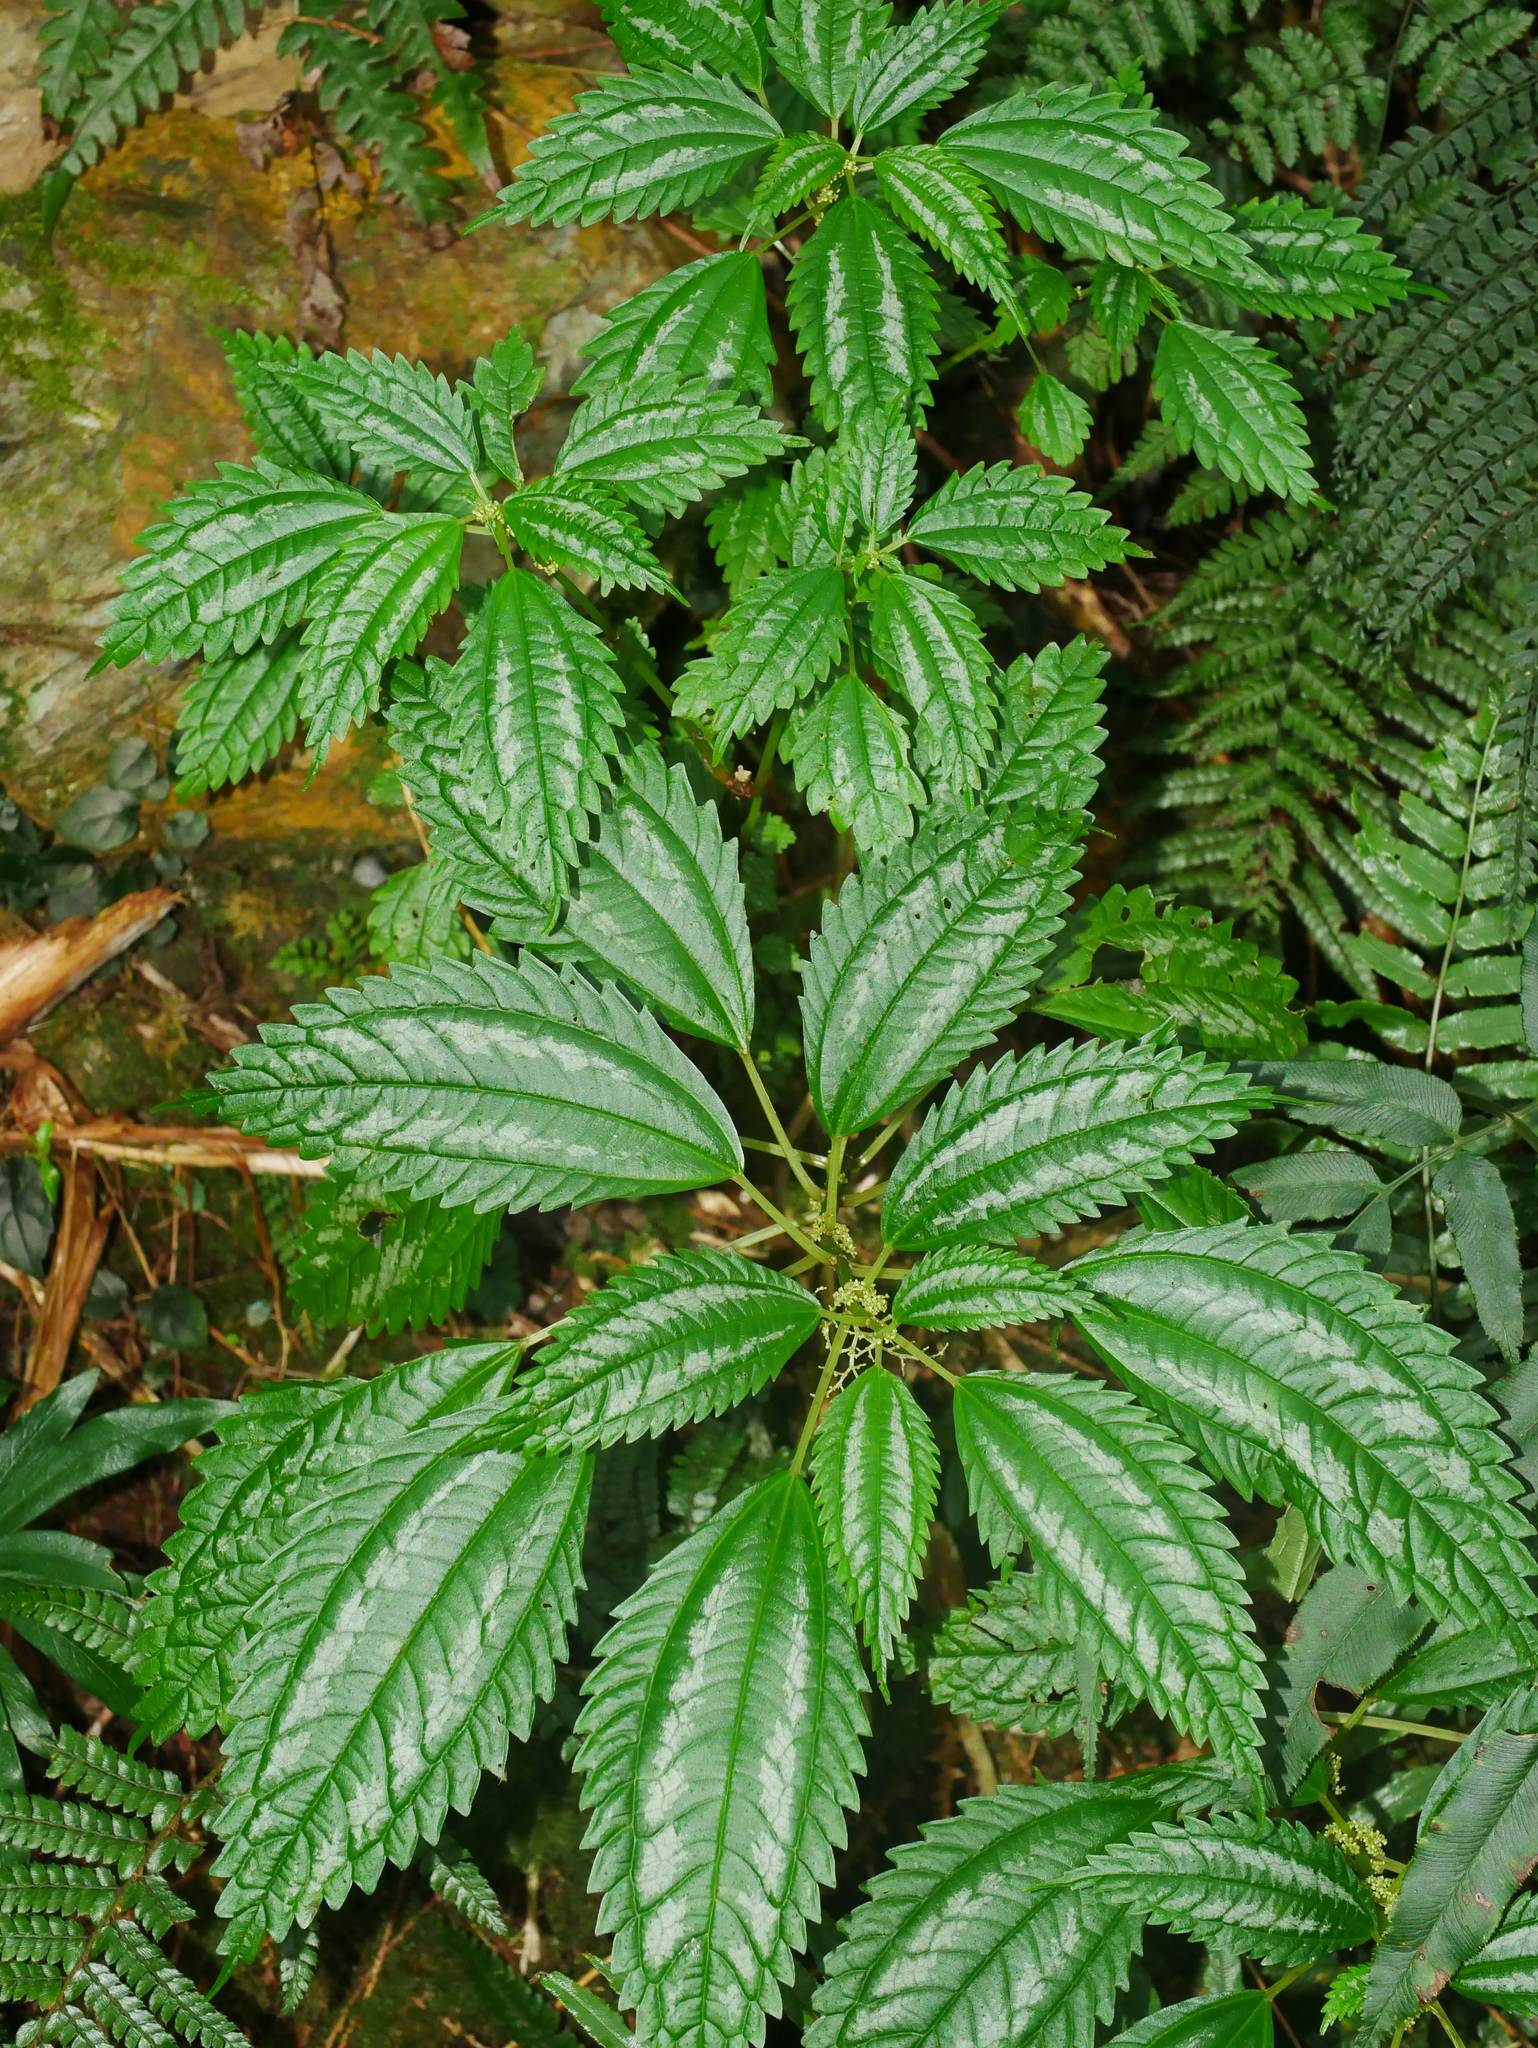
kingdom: Plantae
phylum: Tracheophyta
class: Magnoliopsida
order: Rosales
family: Urticaceae
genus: Pilea
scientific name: Pilea matsudae
